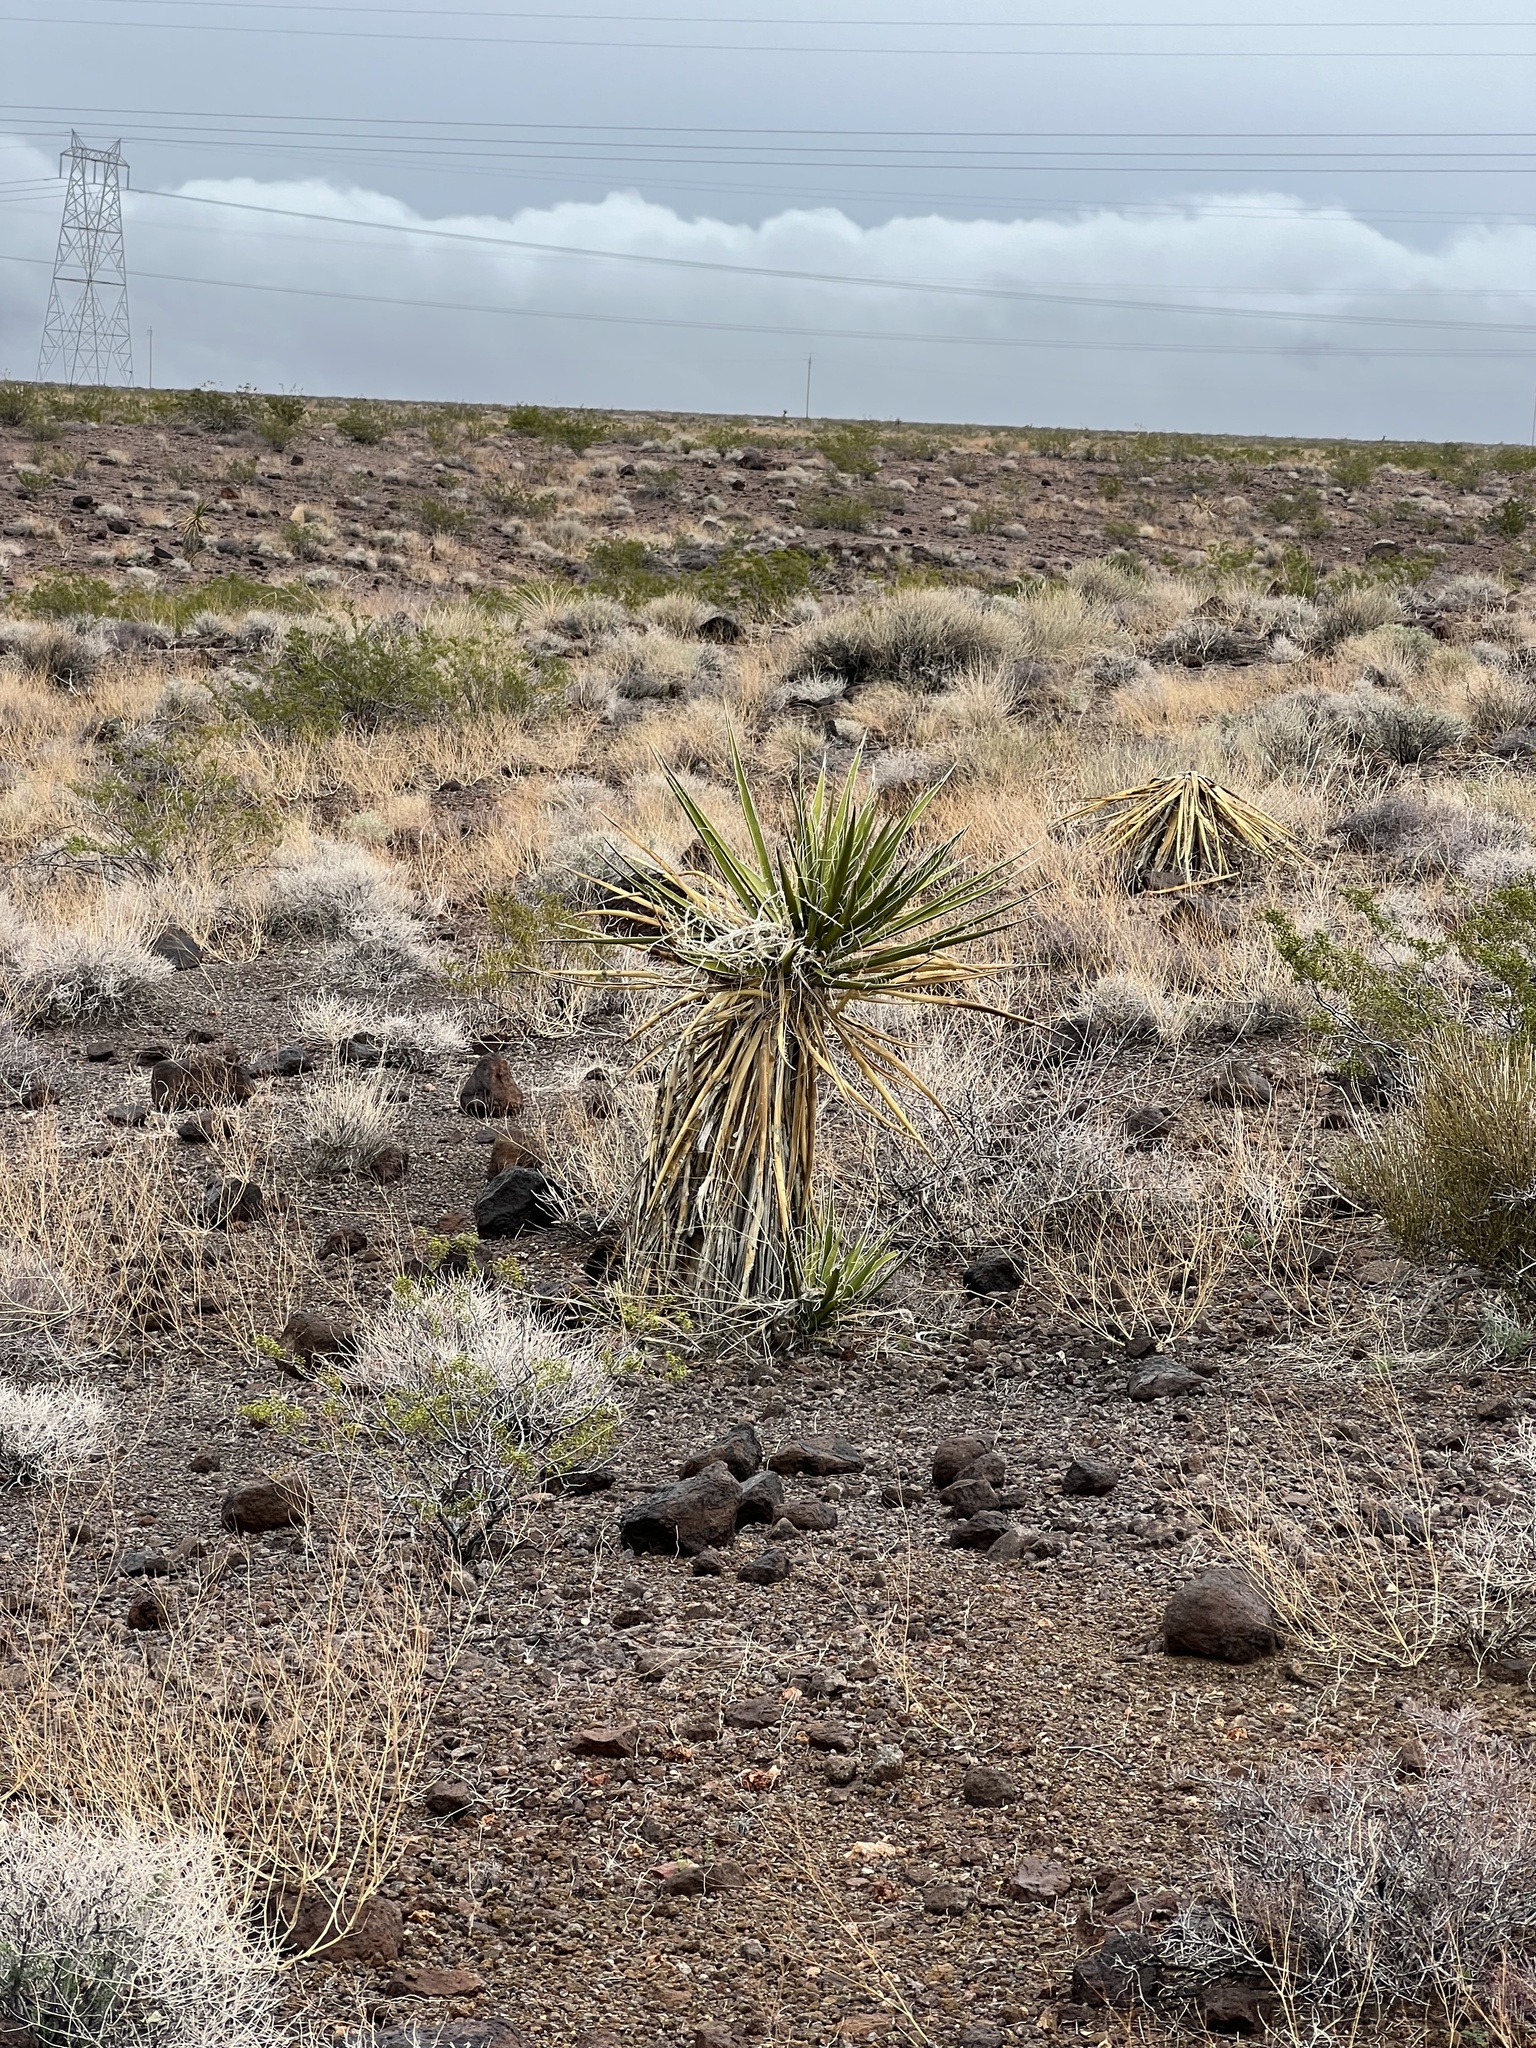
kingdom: Plantae
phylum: Tracheophyta
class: Liliopsida
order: Asparagales
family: Asparagaceae
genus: Yucca
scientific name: Yucca schidigera
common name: Mojave yucca
